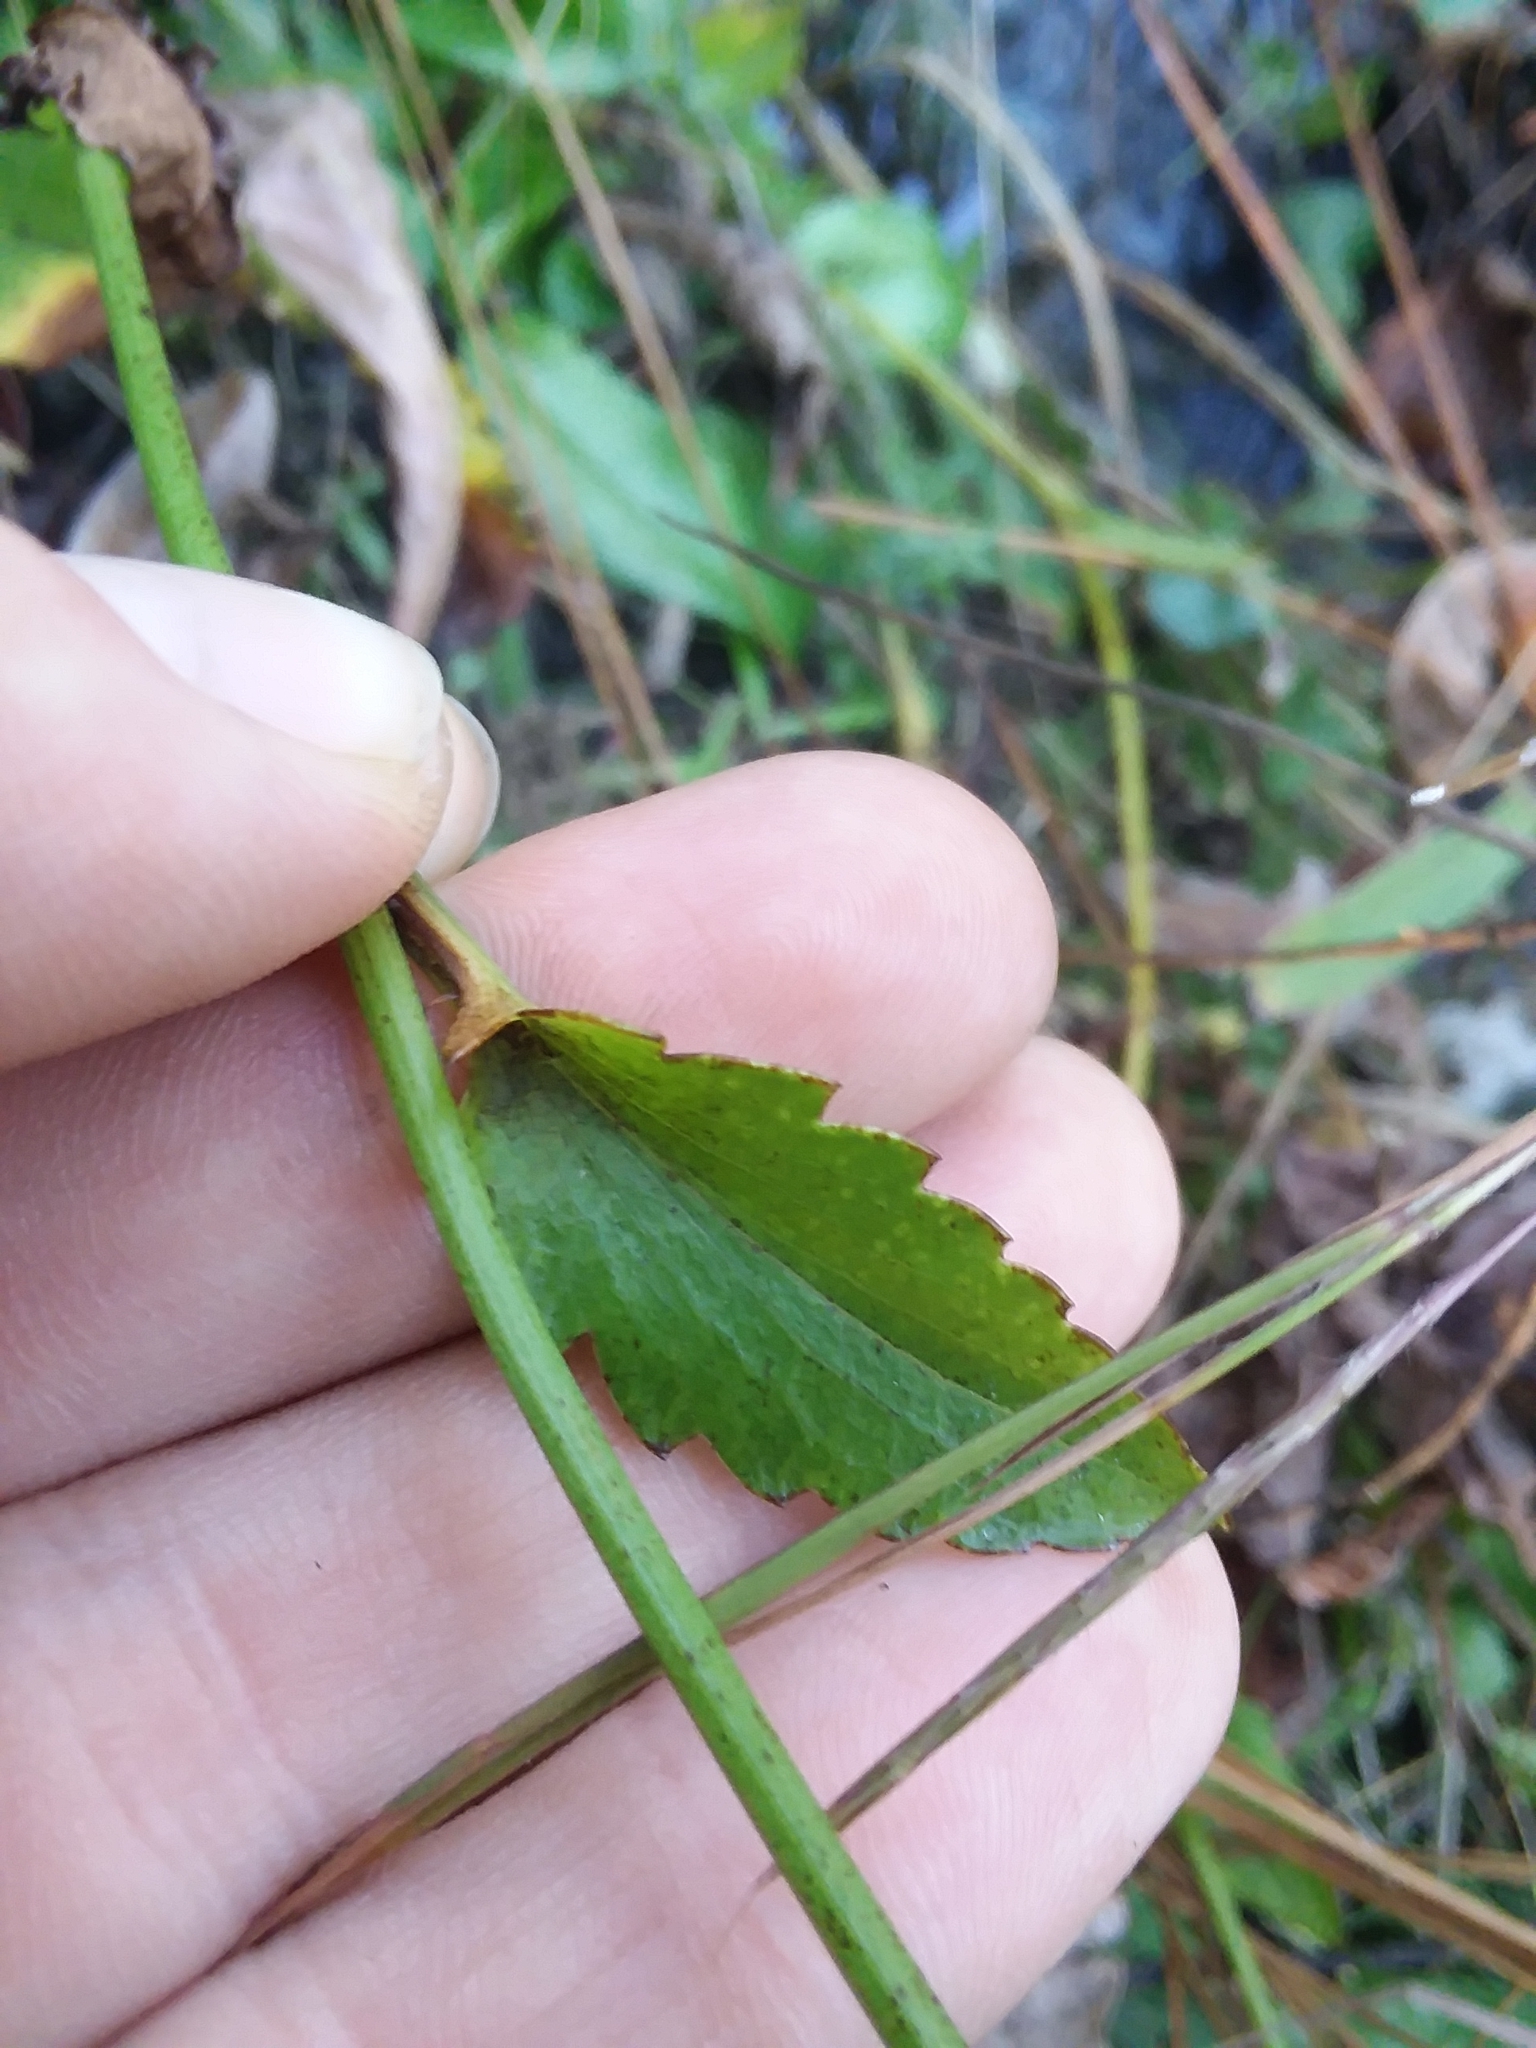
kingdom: Plantae
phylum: Tracheophyta
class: Magnoliopsida
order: Apiales
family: Apiaceae
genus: Eryngium
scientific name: Eryngium integrifolium
